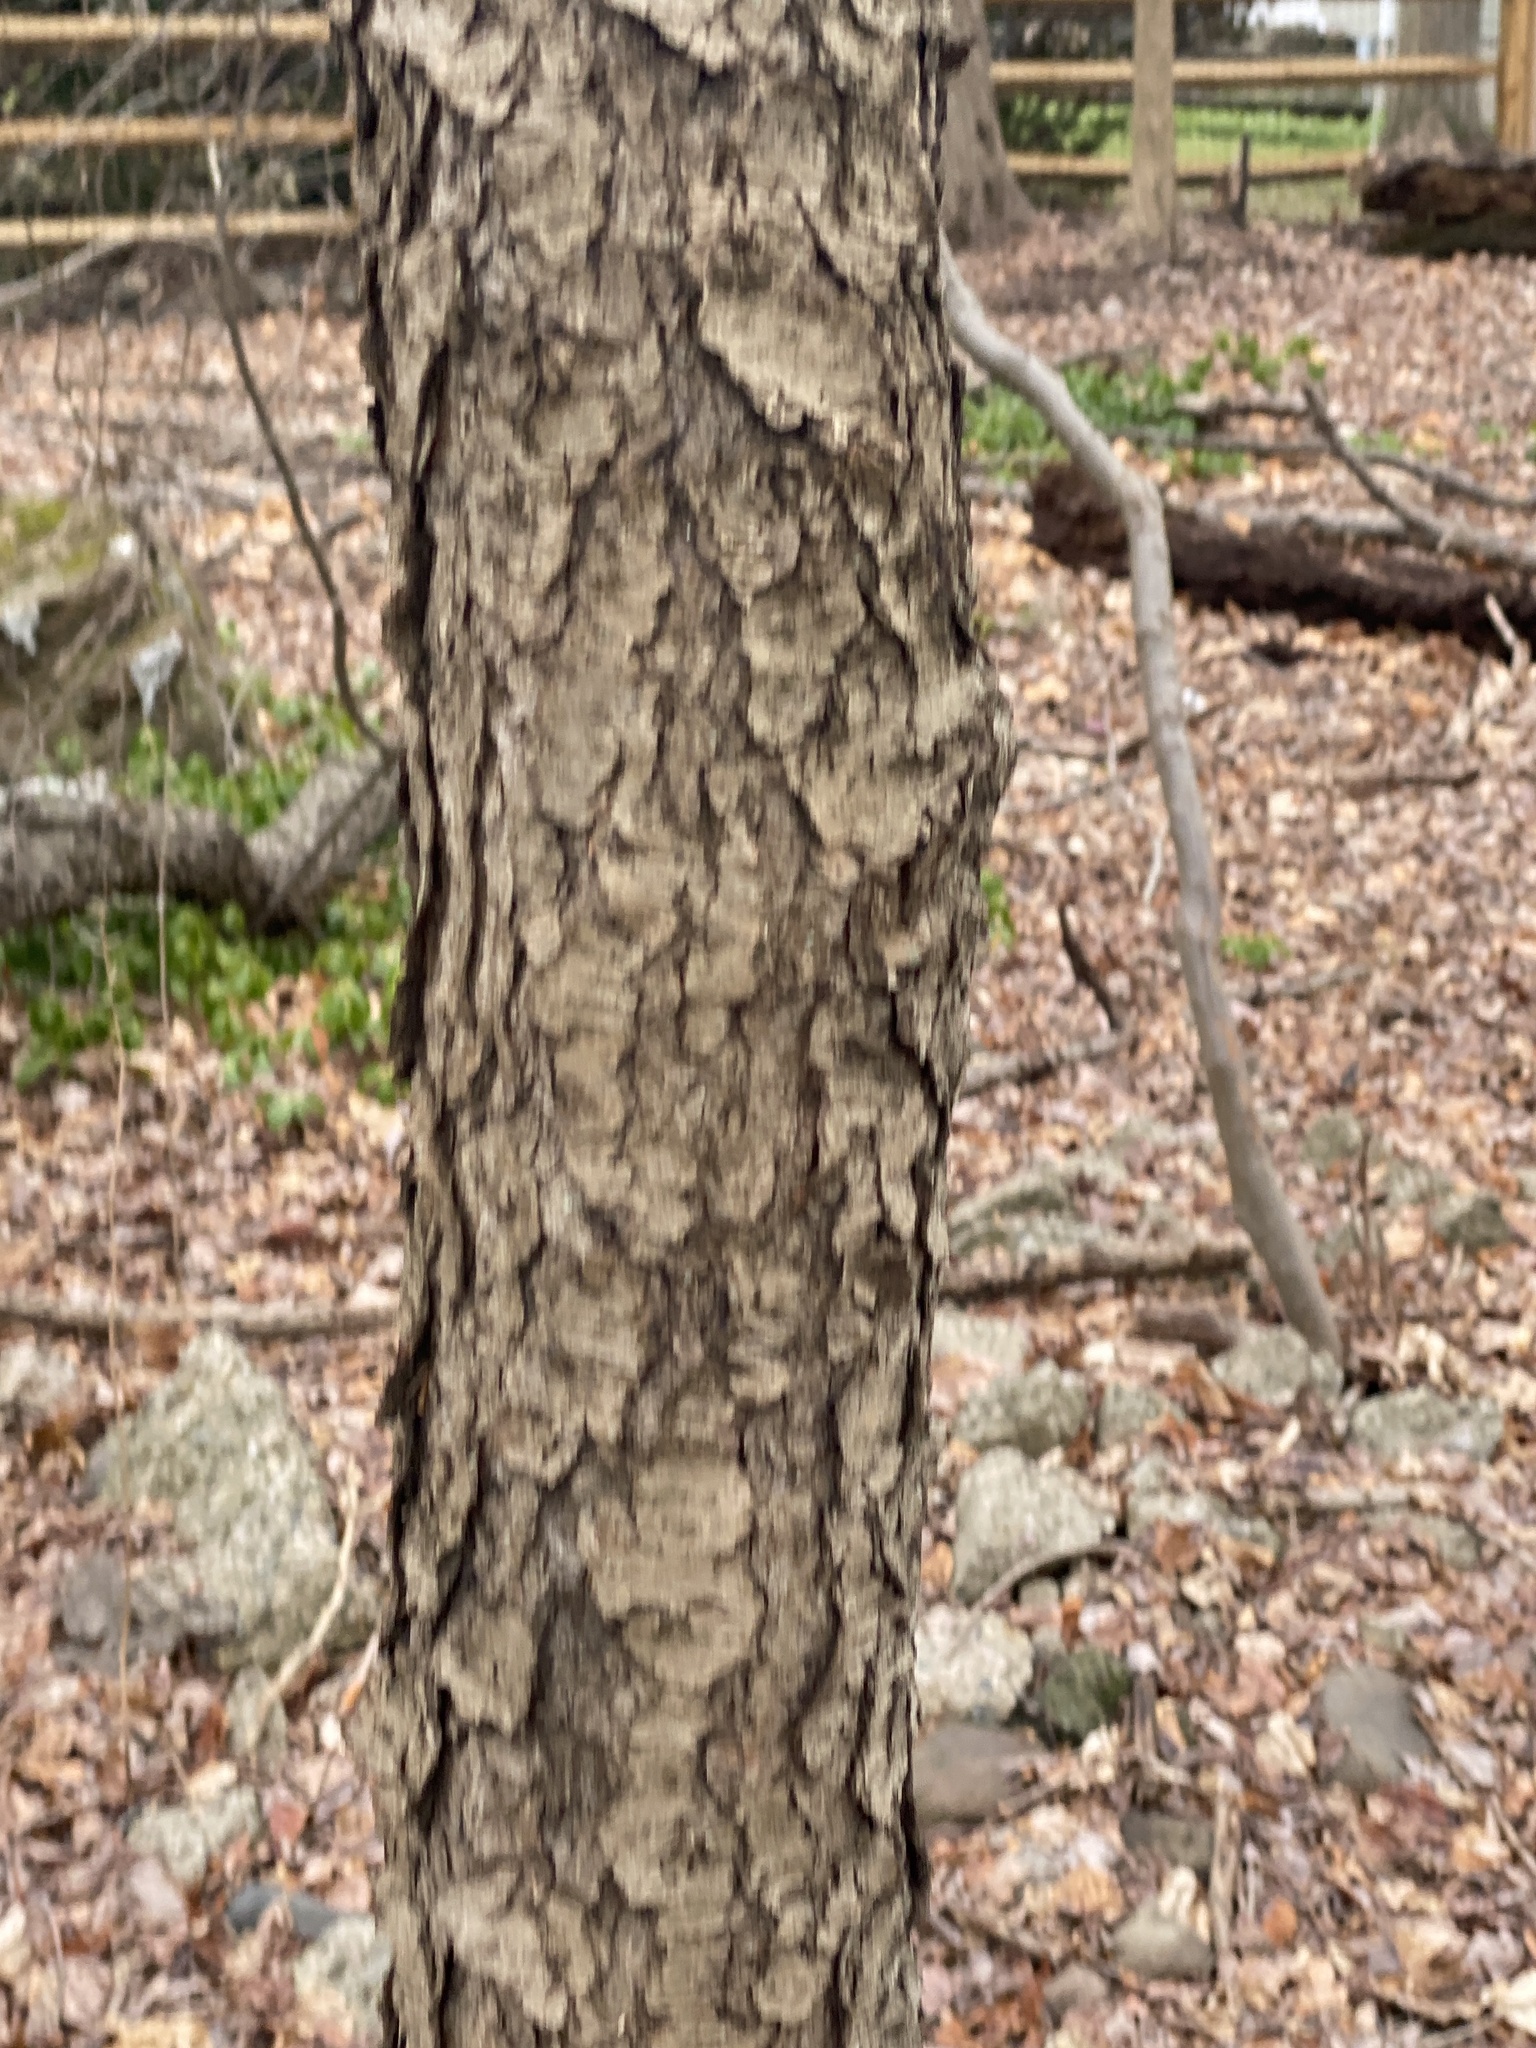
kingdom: Plantae
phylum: Tracheophyta
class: Magnoliopsida
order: Rosales
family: Rosaceae
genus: Prunus
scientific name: Prunus serotina
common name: Black cherry
